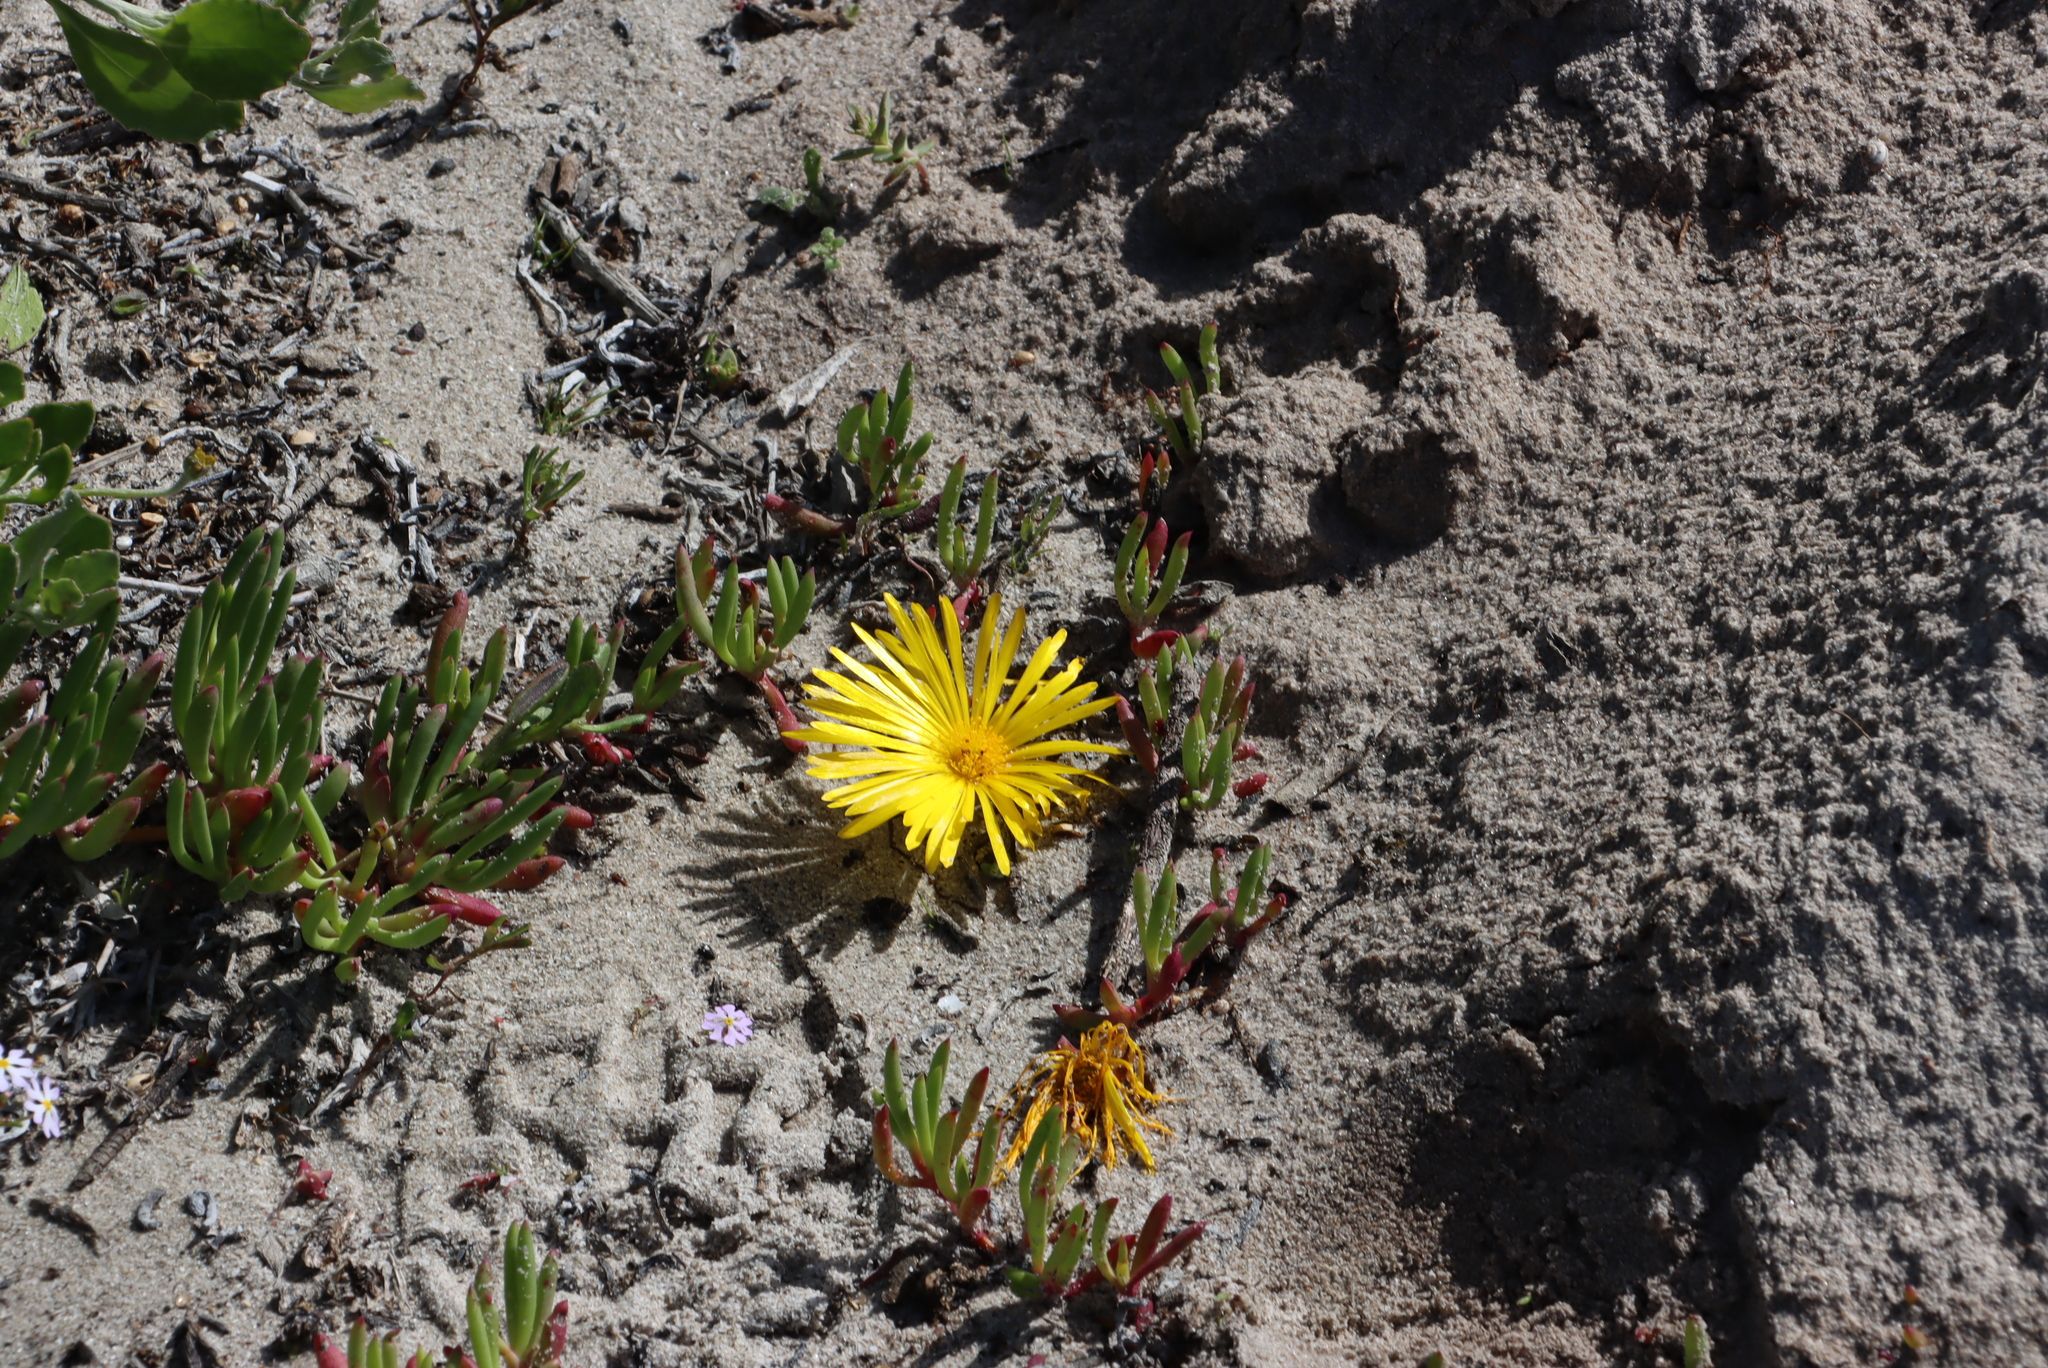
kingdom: Plantae
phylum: Tracheophyta
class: Magnoliopsida
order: Caryophyllales
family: Aizoaceae
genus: Jordaaniella
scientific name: Jordaaniella dubia
